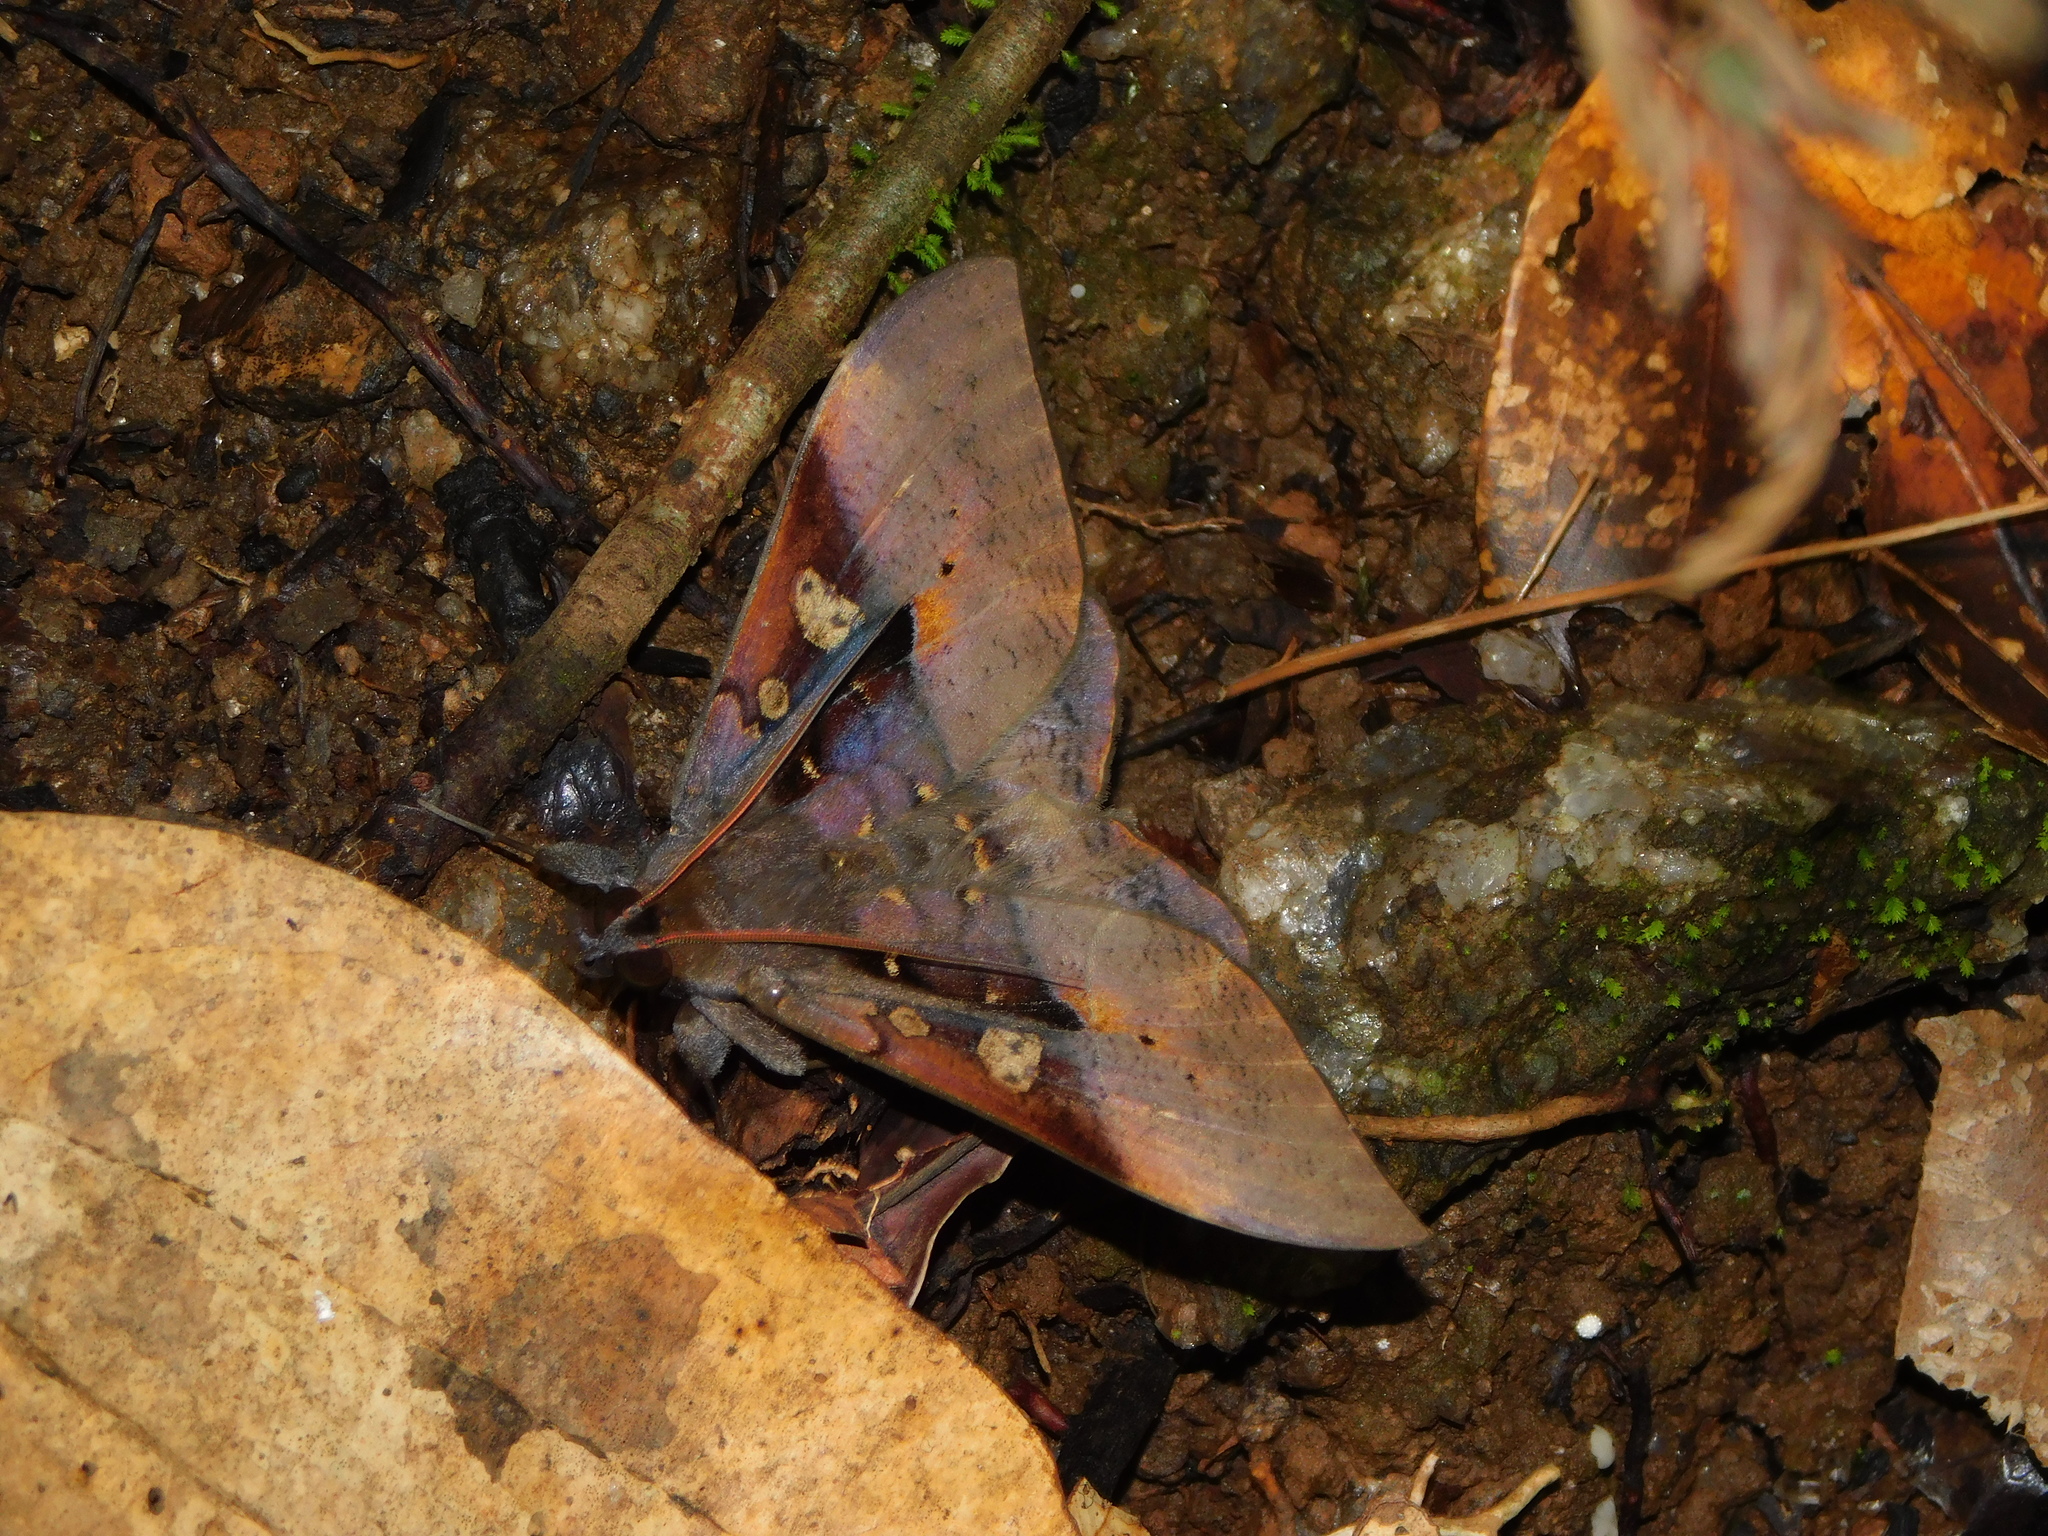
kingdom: Animalia
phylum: Arthropoda
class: Insecta
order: Lepidoptera
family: Erebidae
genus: Ischyja
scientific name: Ischyja manlia
